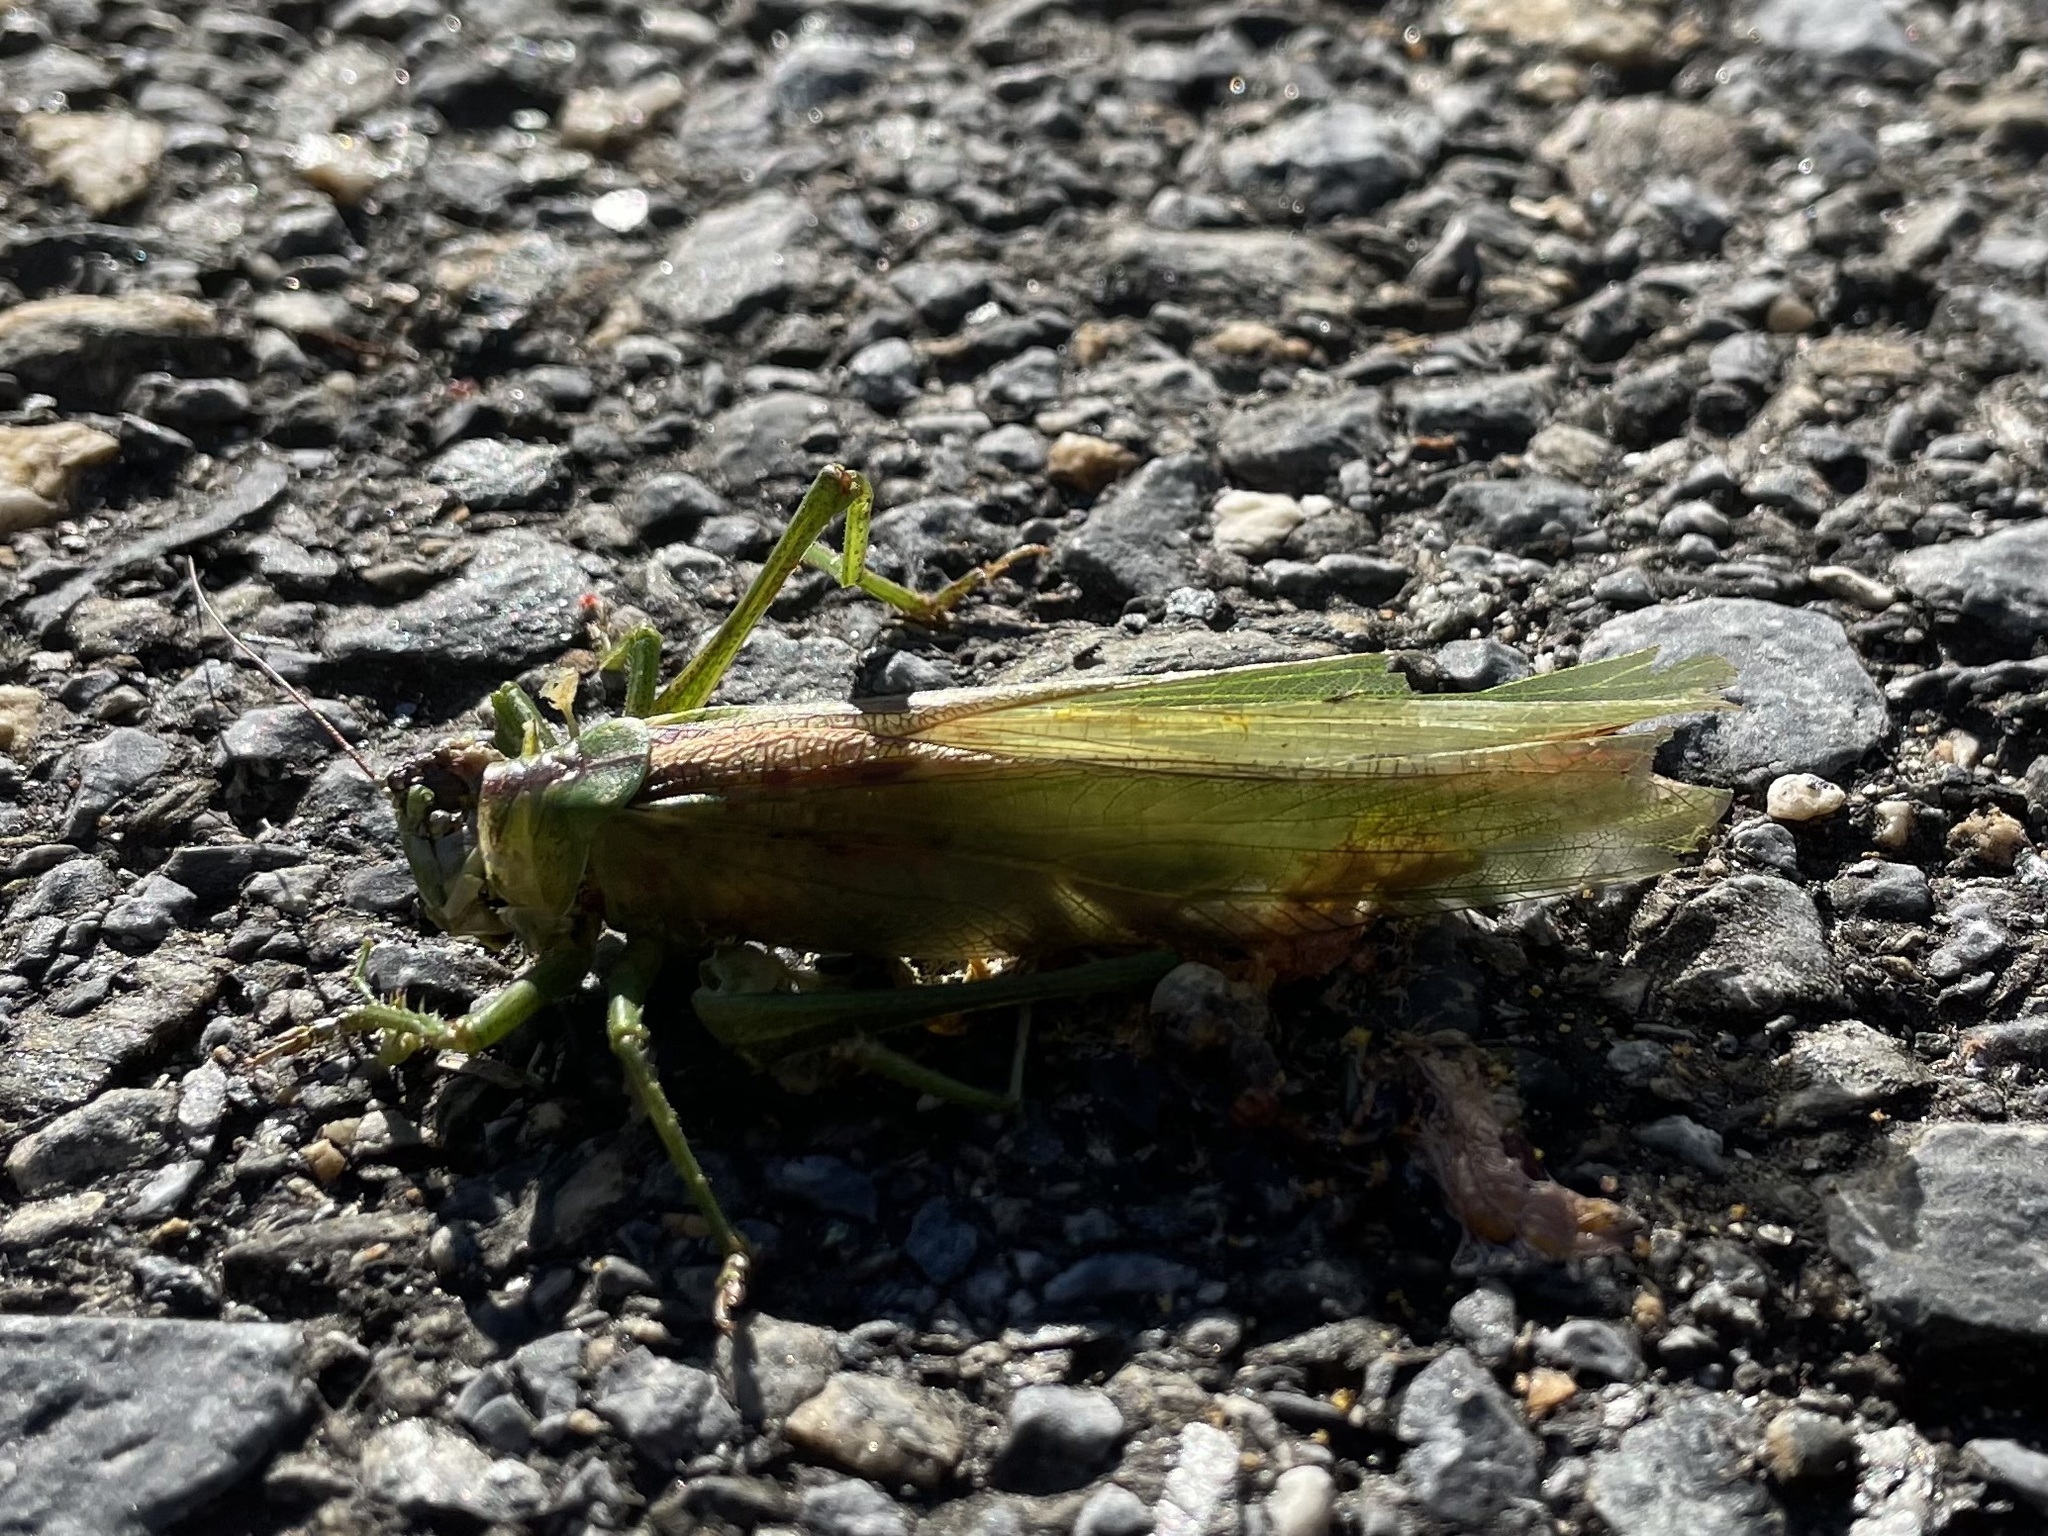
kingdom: Animalia
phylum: Arthropoda
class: Insecta
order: Orthoptera
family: Tettigoniidae
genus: Tettigonia
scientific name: Tettigonia viridissima
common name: Great green bush-cricket
